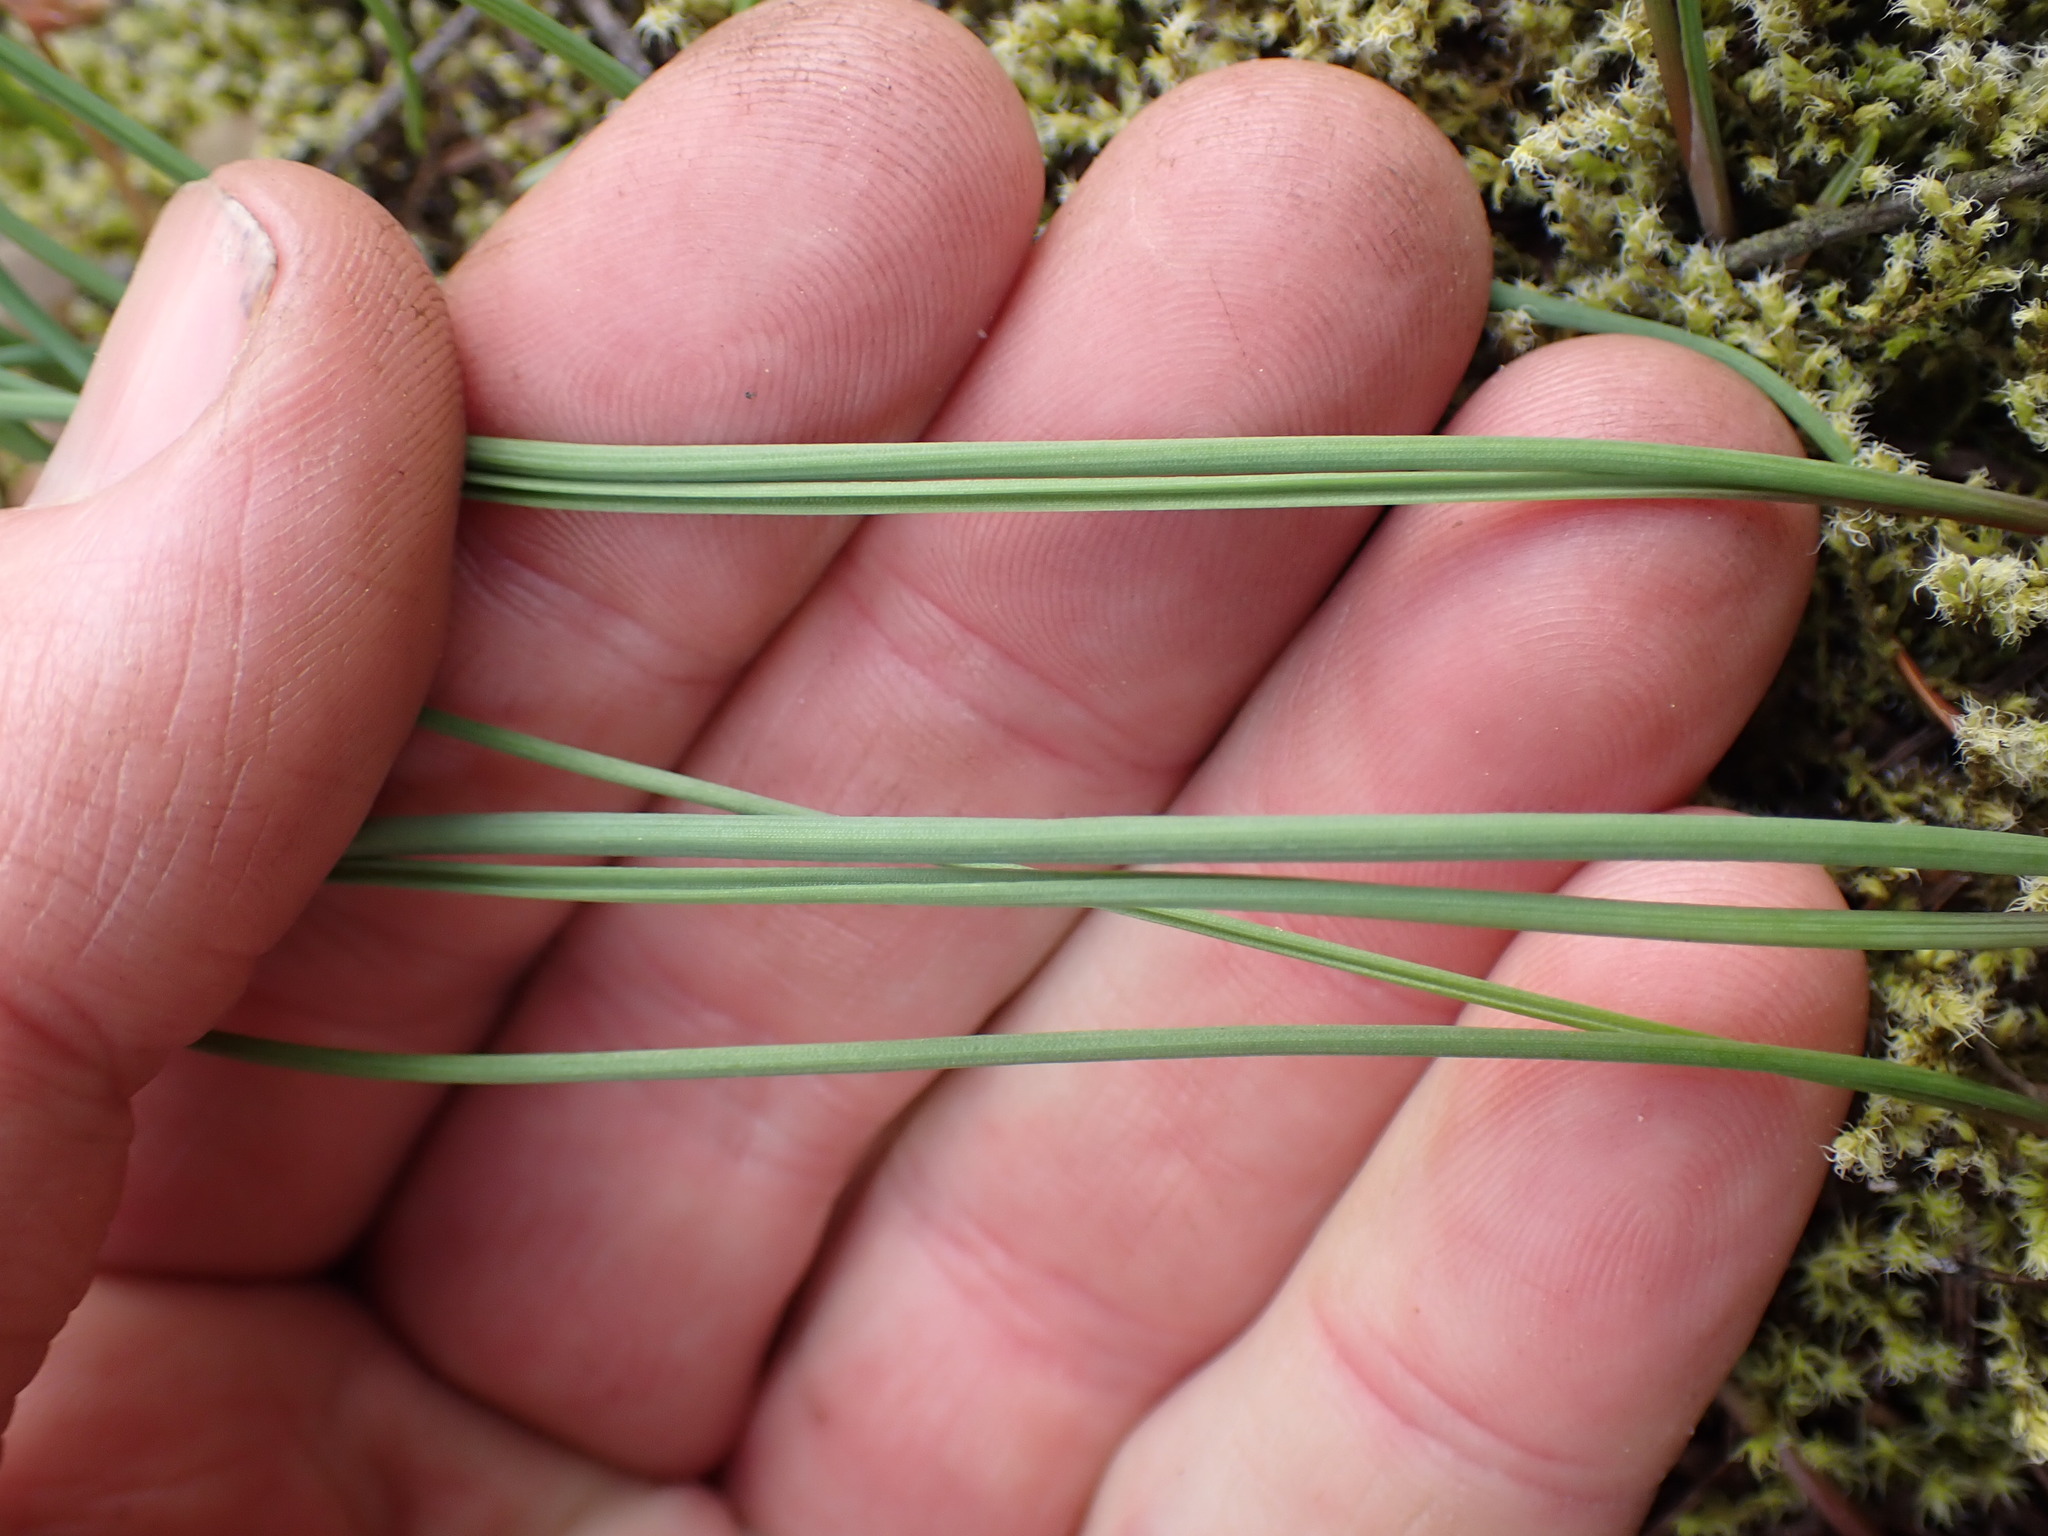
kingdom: Plantae
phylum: Tracheophyta
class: Liliopsida
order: Asparagales
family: Amaryllidaceae
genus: Allium
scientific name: Allium cernuum
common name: Nodding onion
